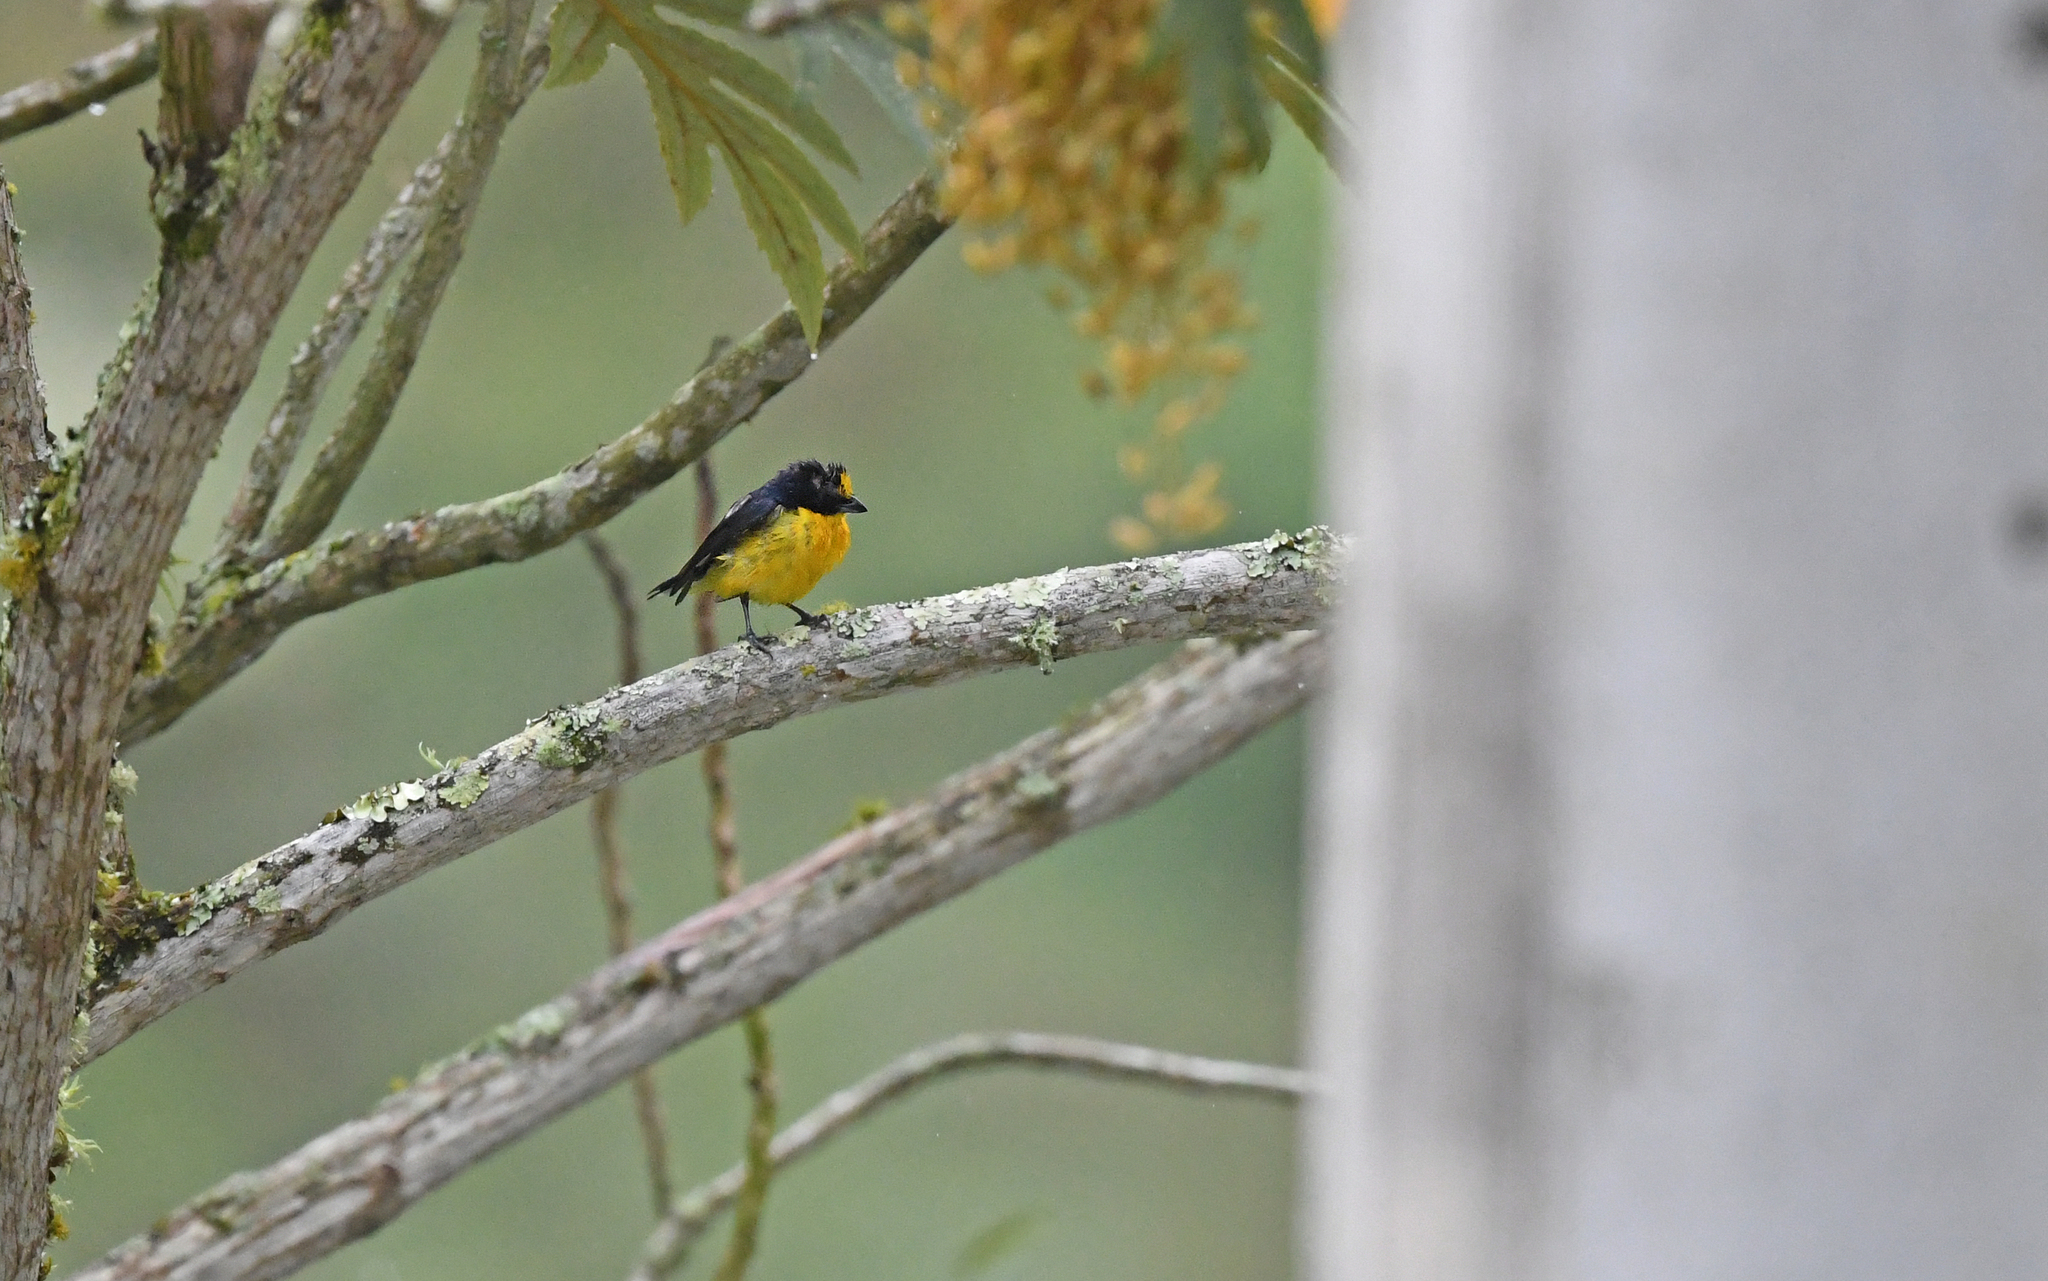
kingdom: Animalia
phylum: Chordata
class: Aves
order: Passeriformes
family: Fringillidae
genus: Euphonia
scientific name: Euphonia laniirostris
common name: Thick-billed euphonia
